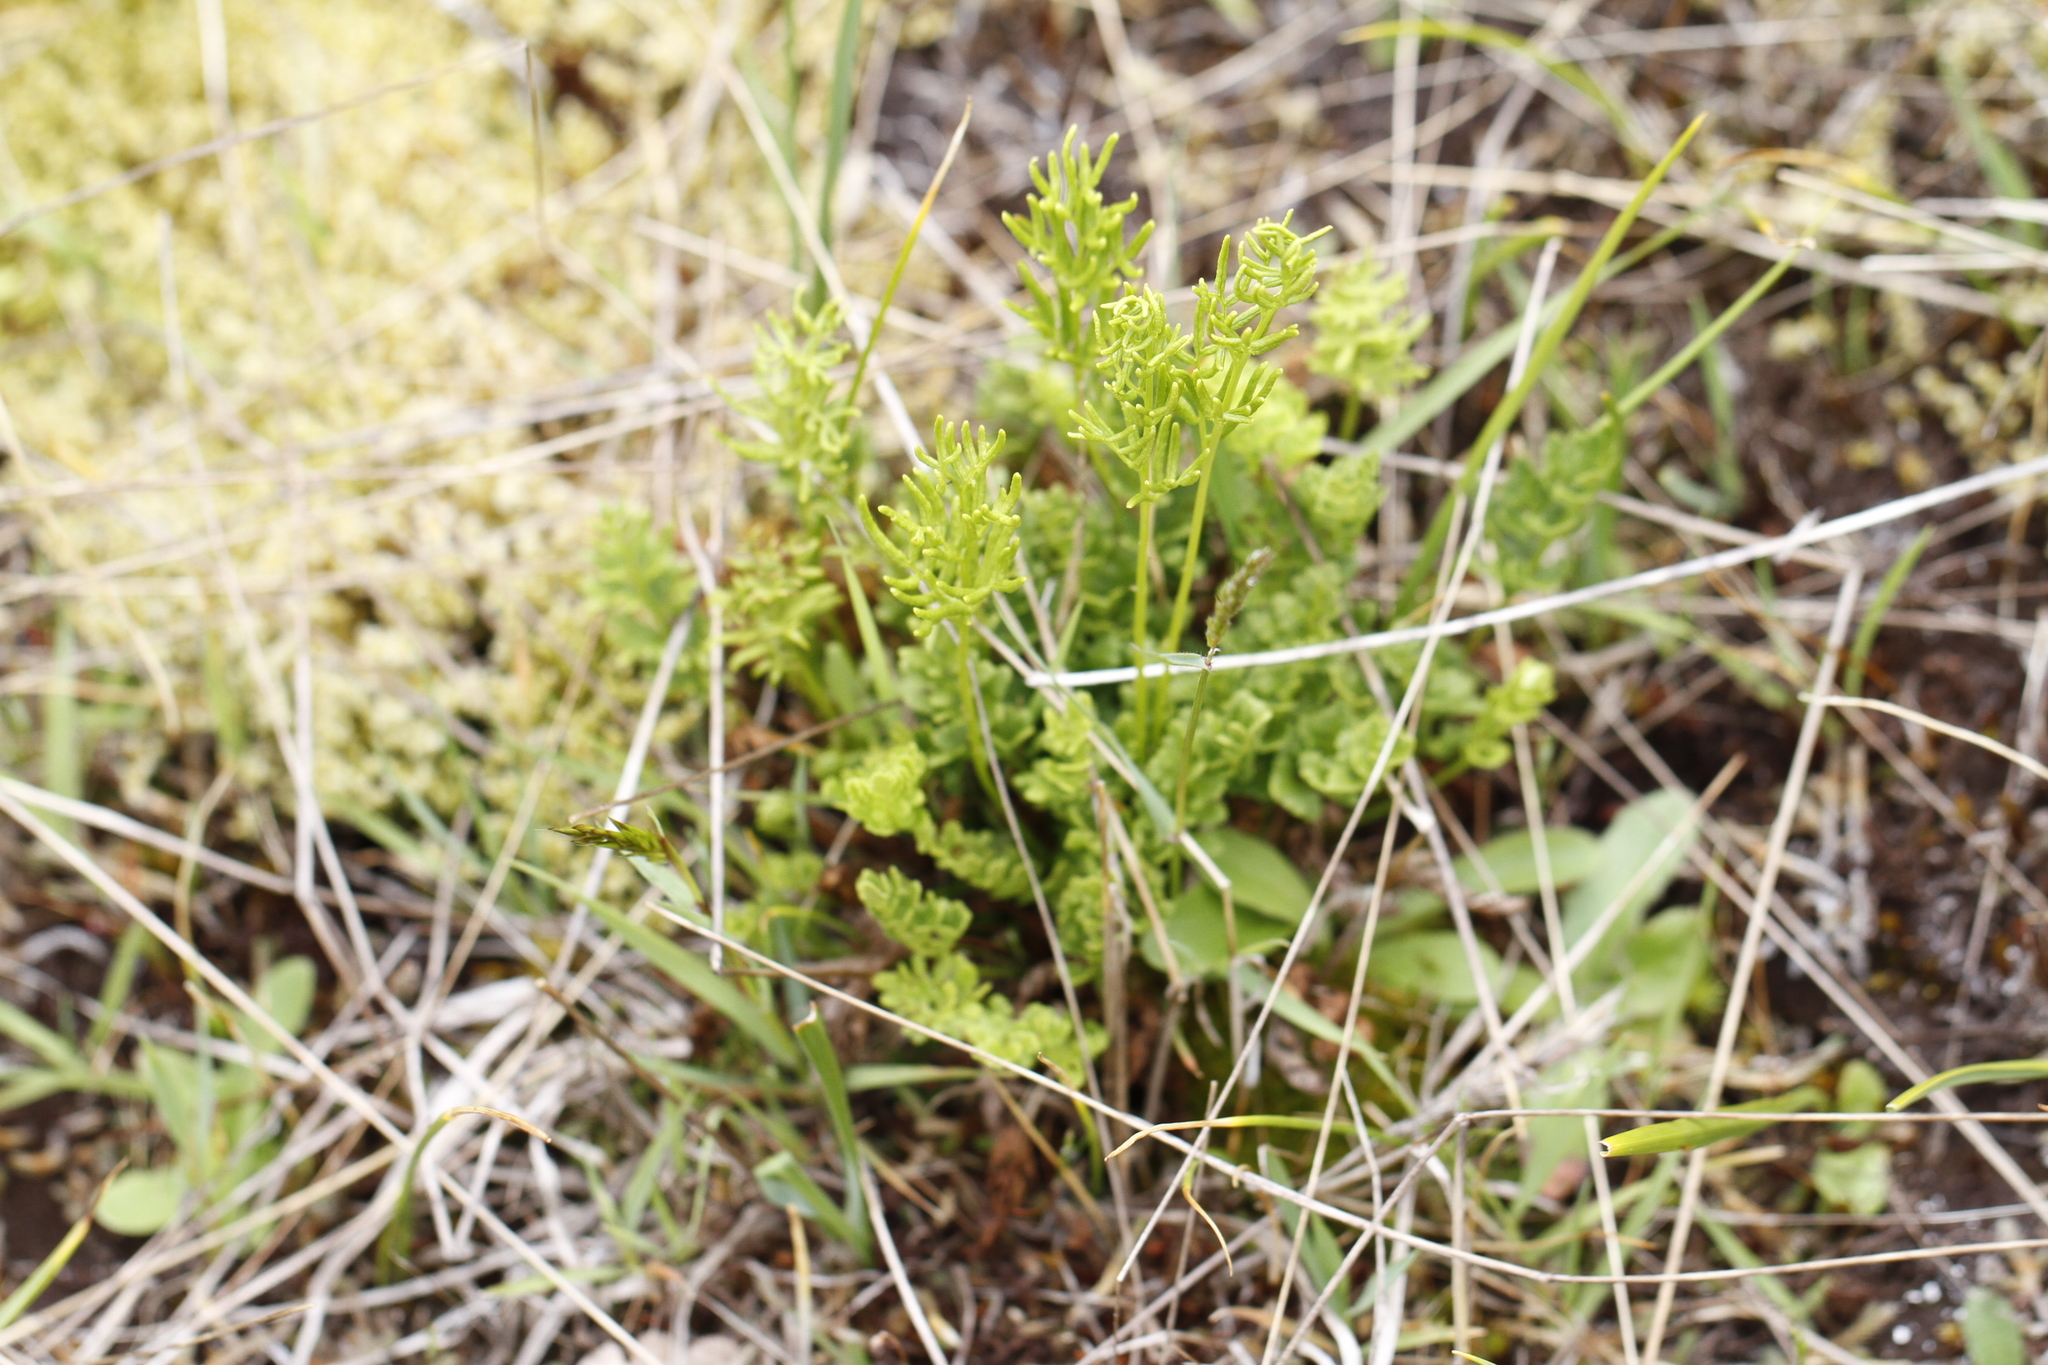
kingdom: Plantae
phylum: Tracheophyta
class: Polypodiopsida
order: Polypodiales
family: Pteridaceae
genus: Cryptogramma
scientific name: Cryptogramma acrostichoides
